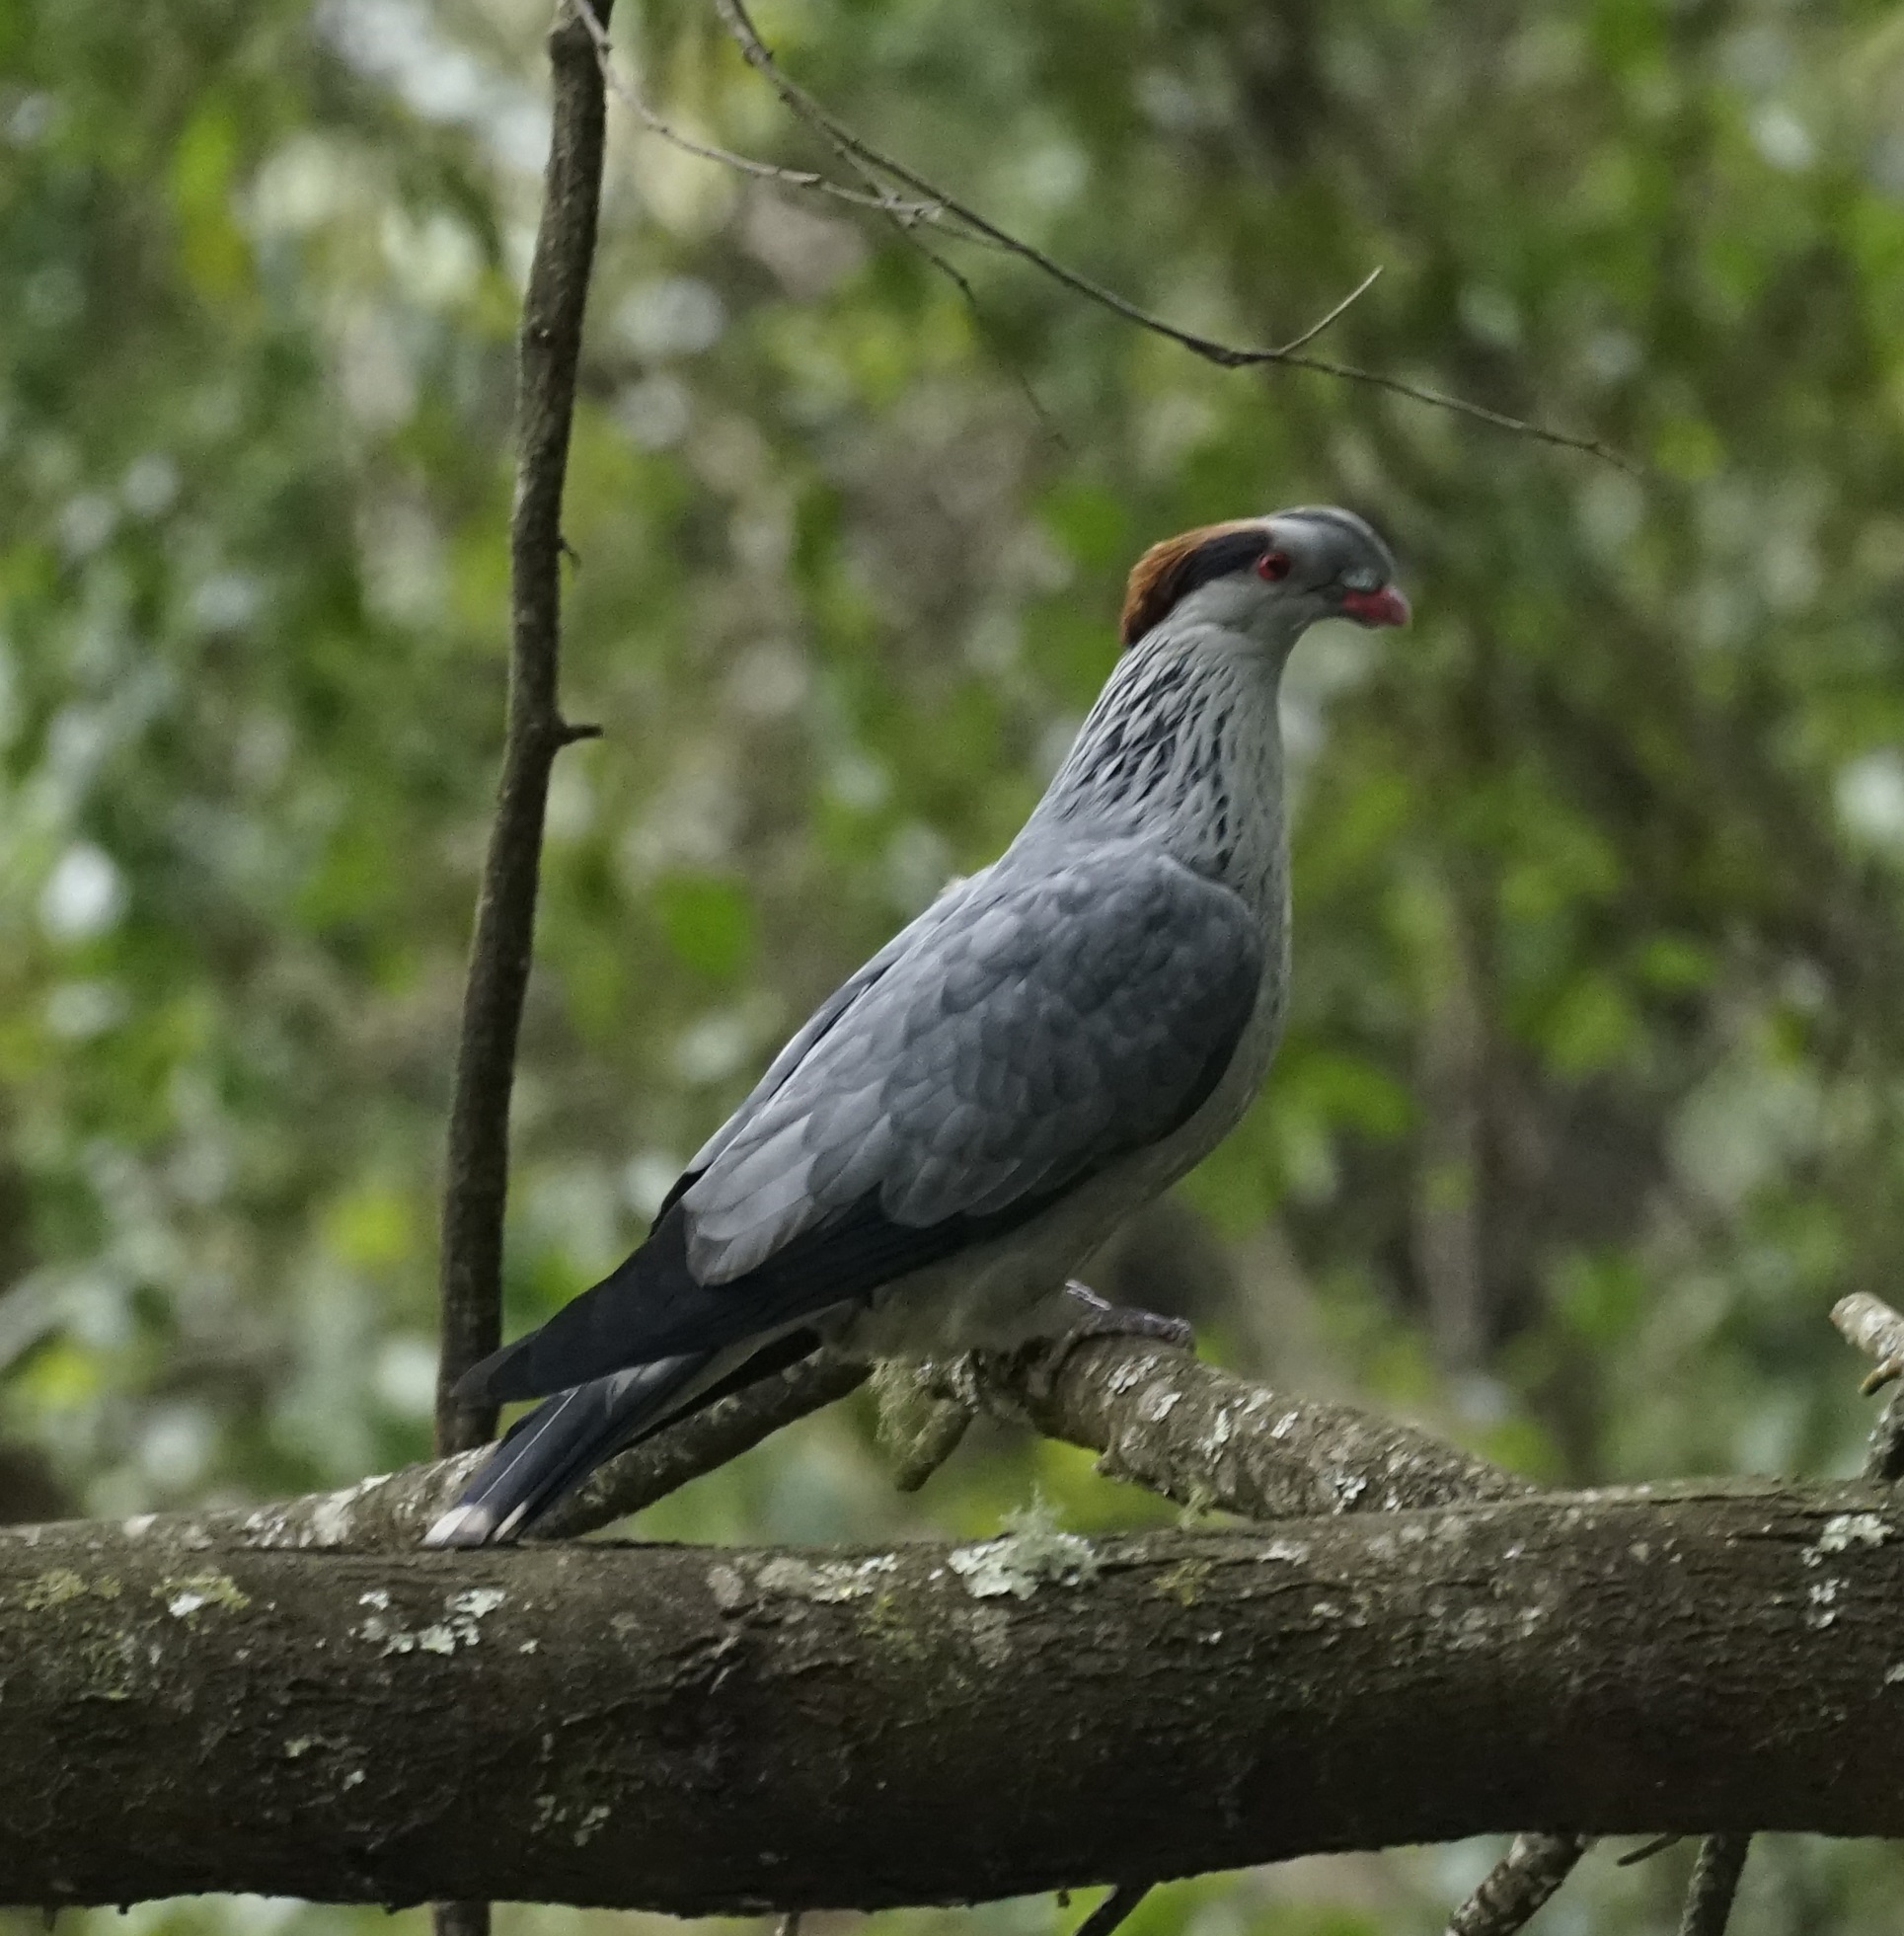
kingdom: Animalia
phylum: Chordata
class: Aves
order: Columbiformes
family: Columbidae
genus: Lopholaimus
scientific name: Lopholaimus antarcticus
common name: Topknot pigeon
